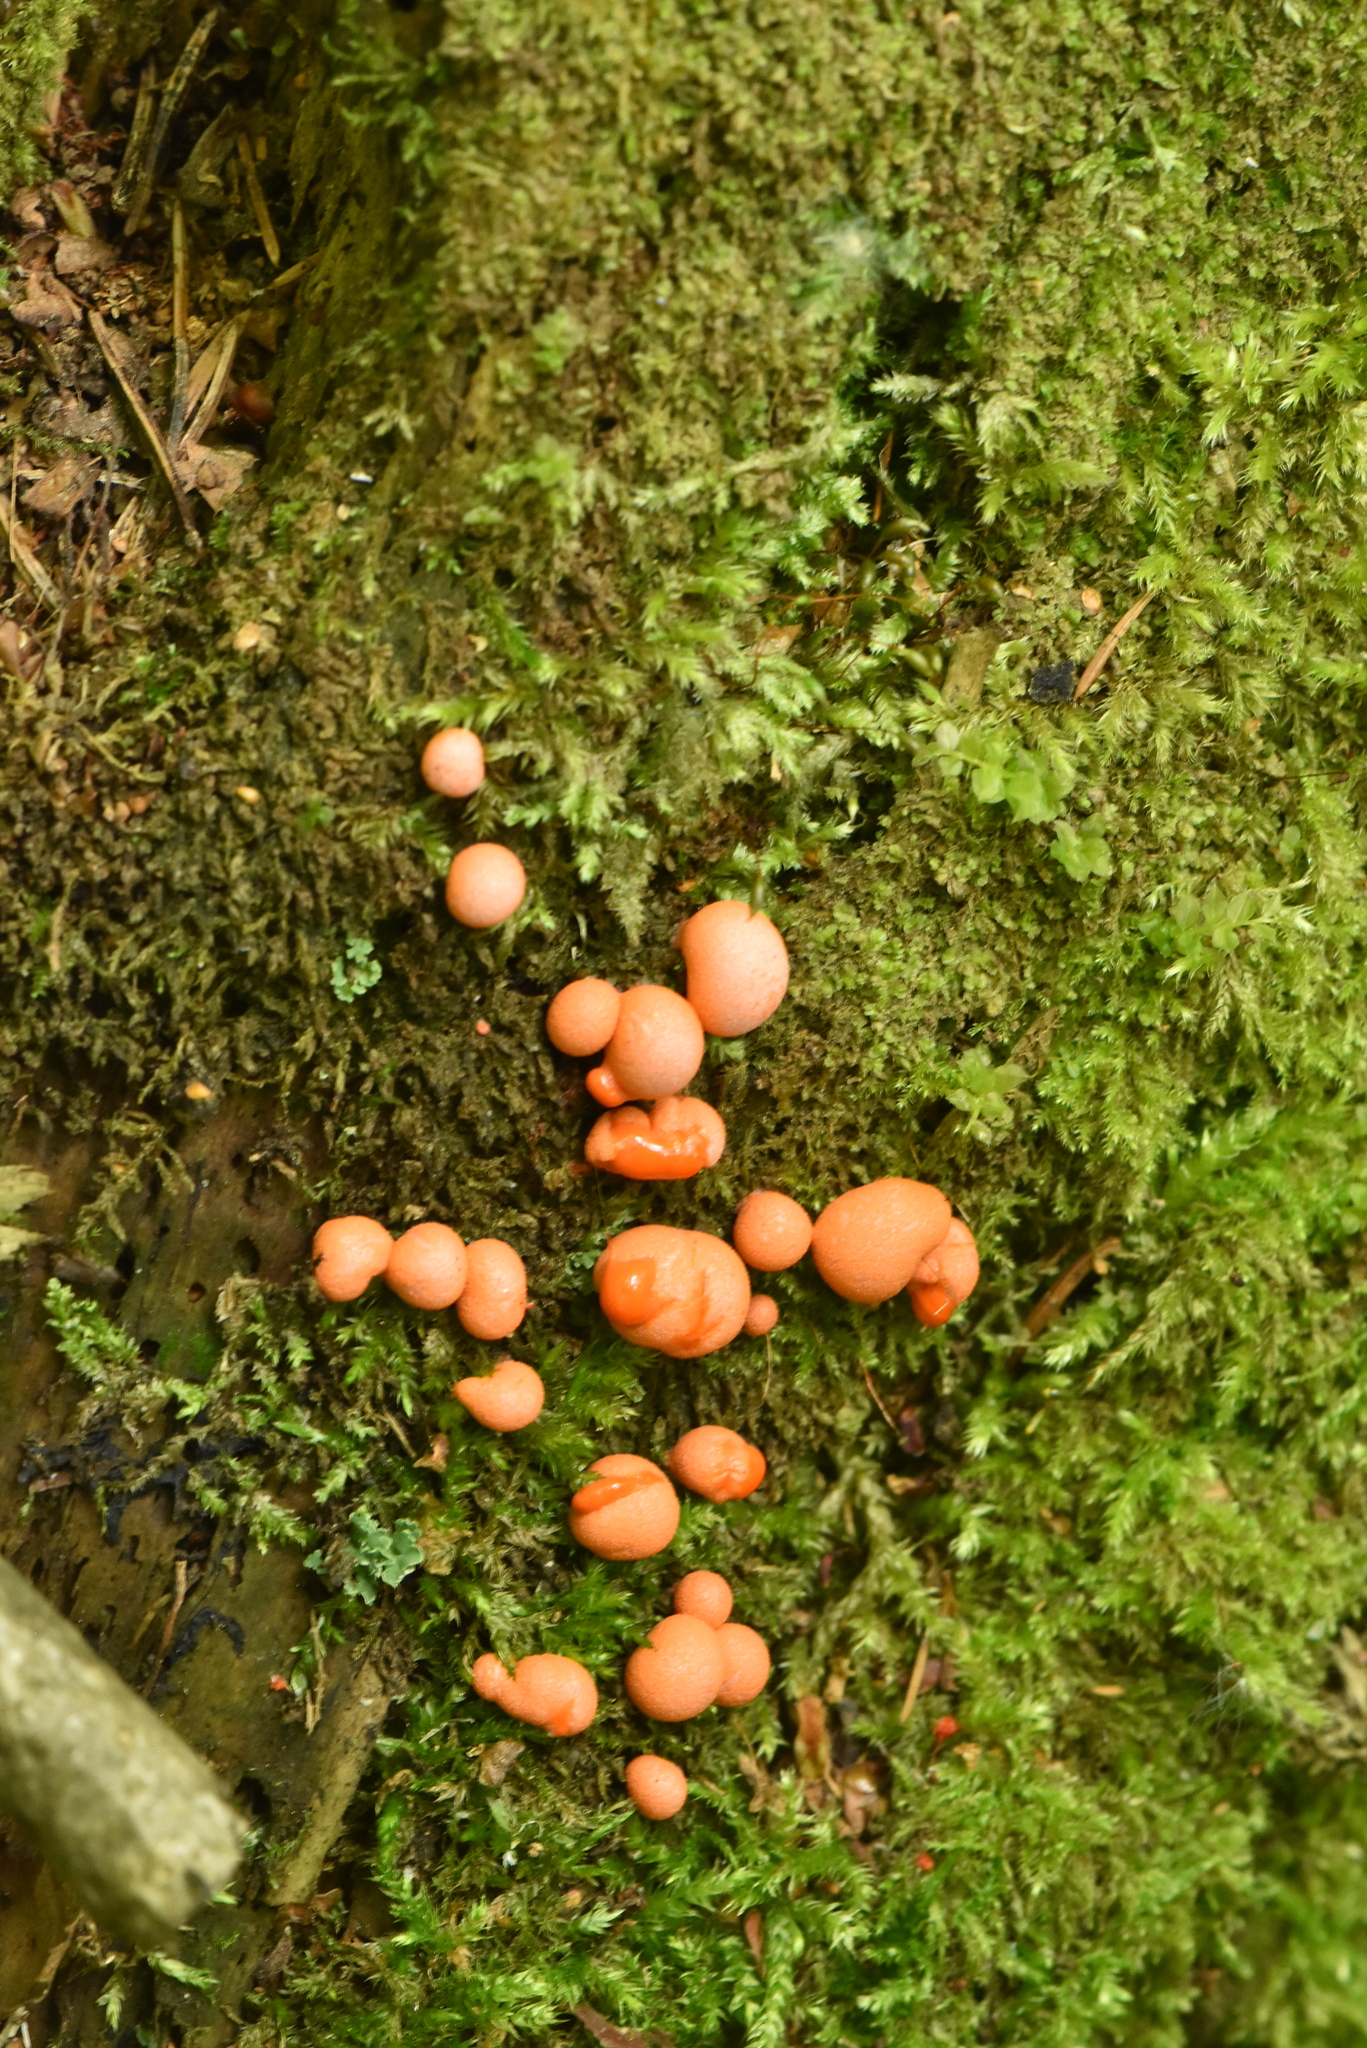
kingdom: Protozoa
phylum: Mycetozoa
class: Myxomycetes
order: Cribrariales
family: Tubiferaceae
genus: Lycogala
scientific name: Lycogala epidendrum
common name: Wolf's milk
